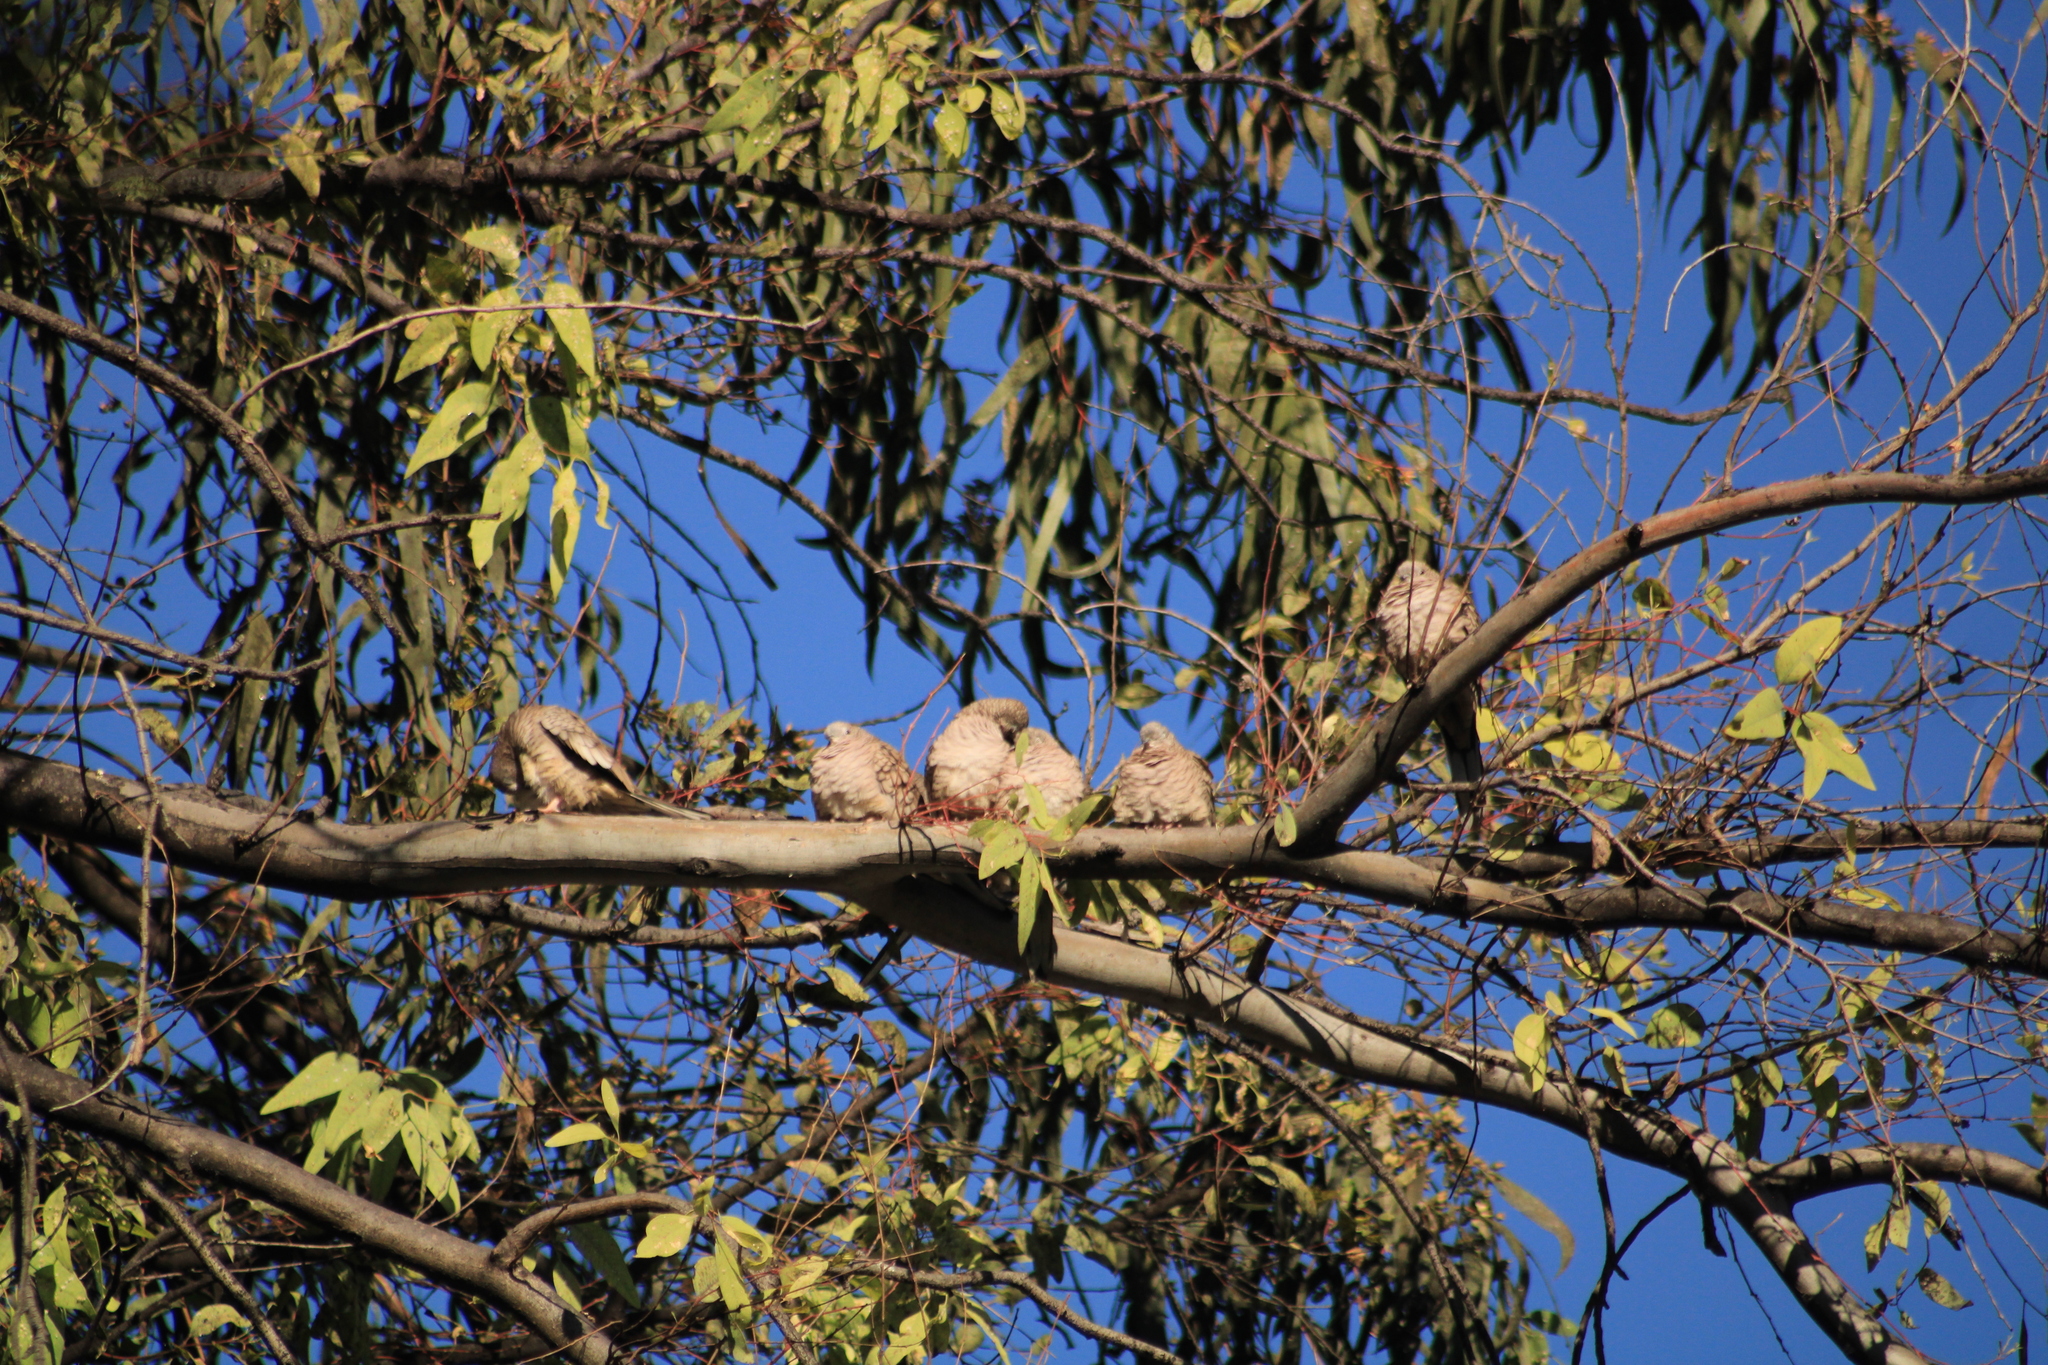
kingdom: Animalia
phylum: Chordata
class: Aves
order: Columbiformes
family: Columbidae
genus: Columbina
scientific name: Columbina inca
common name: Inca dove
